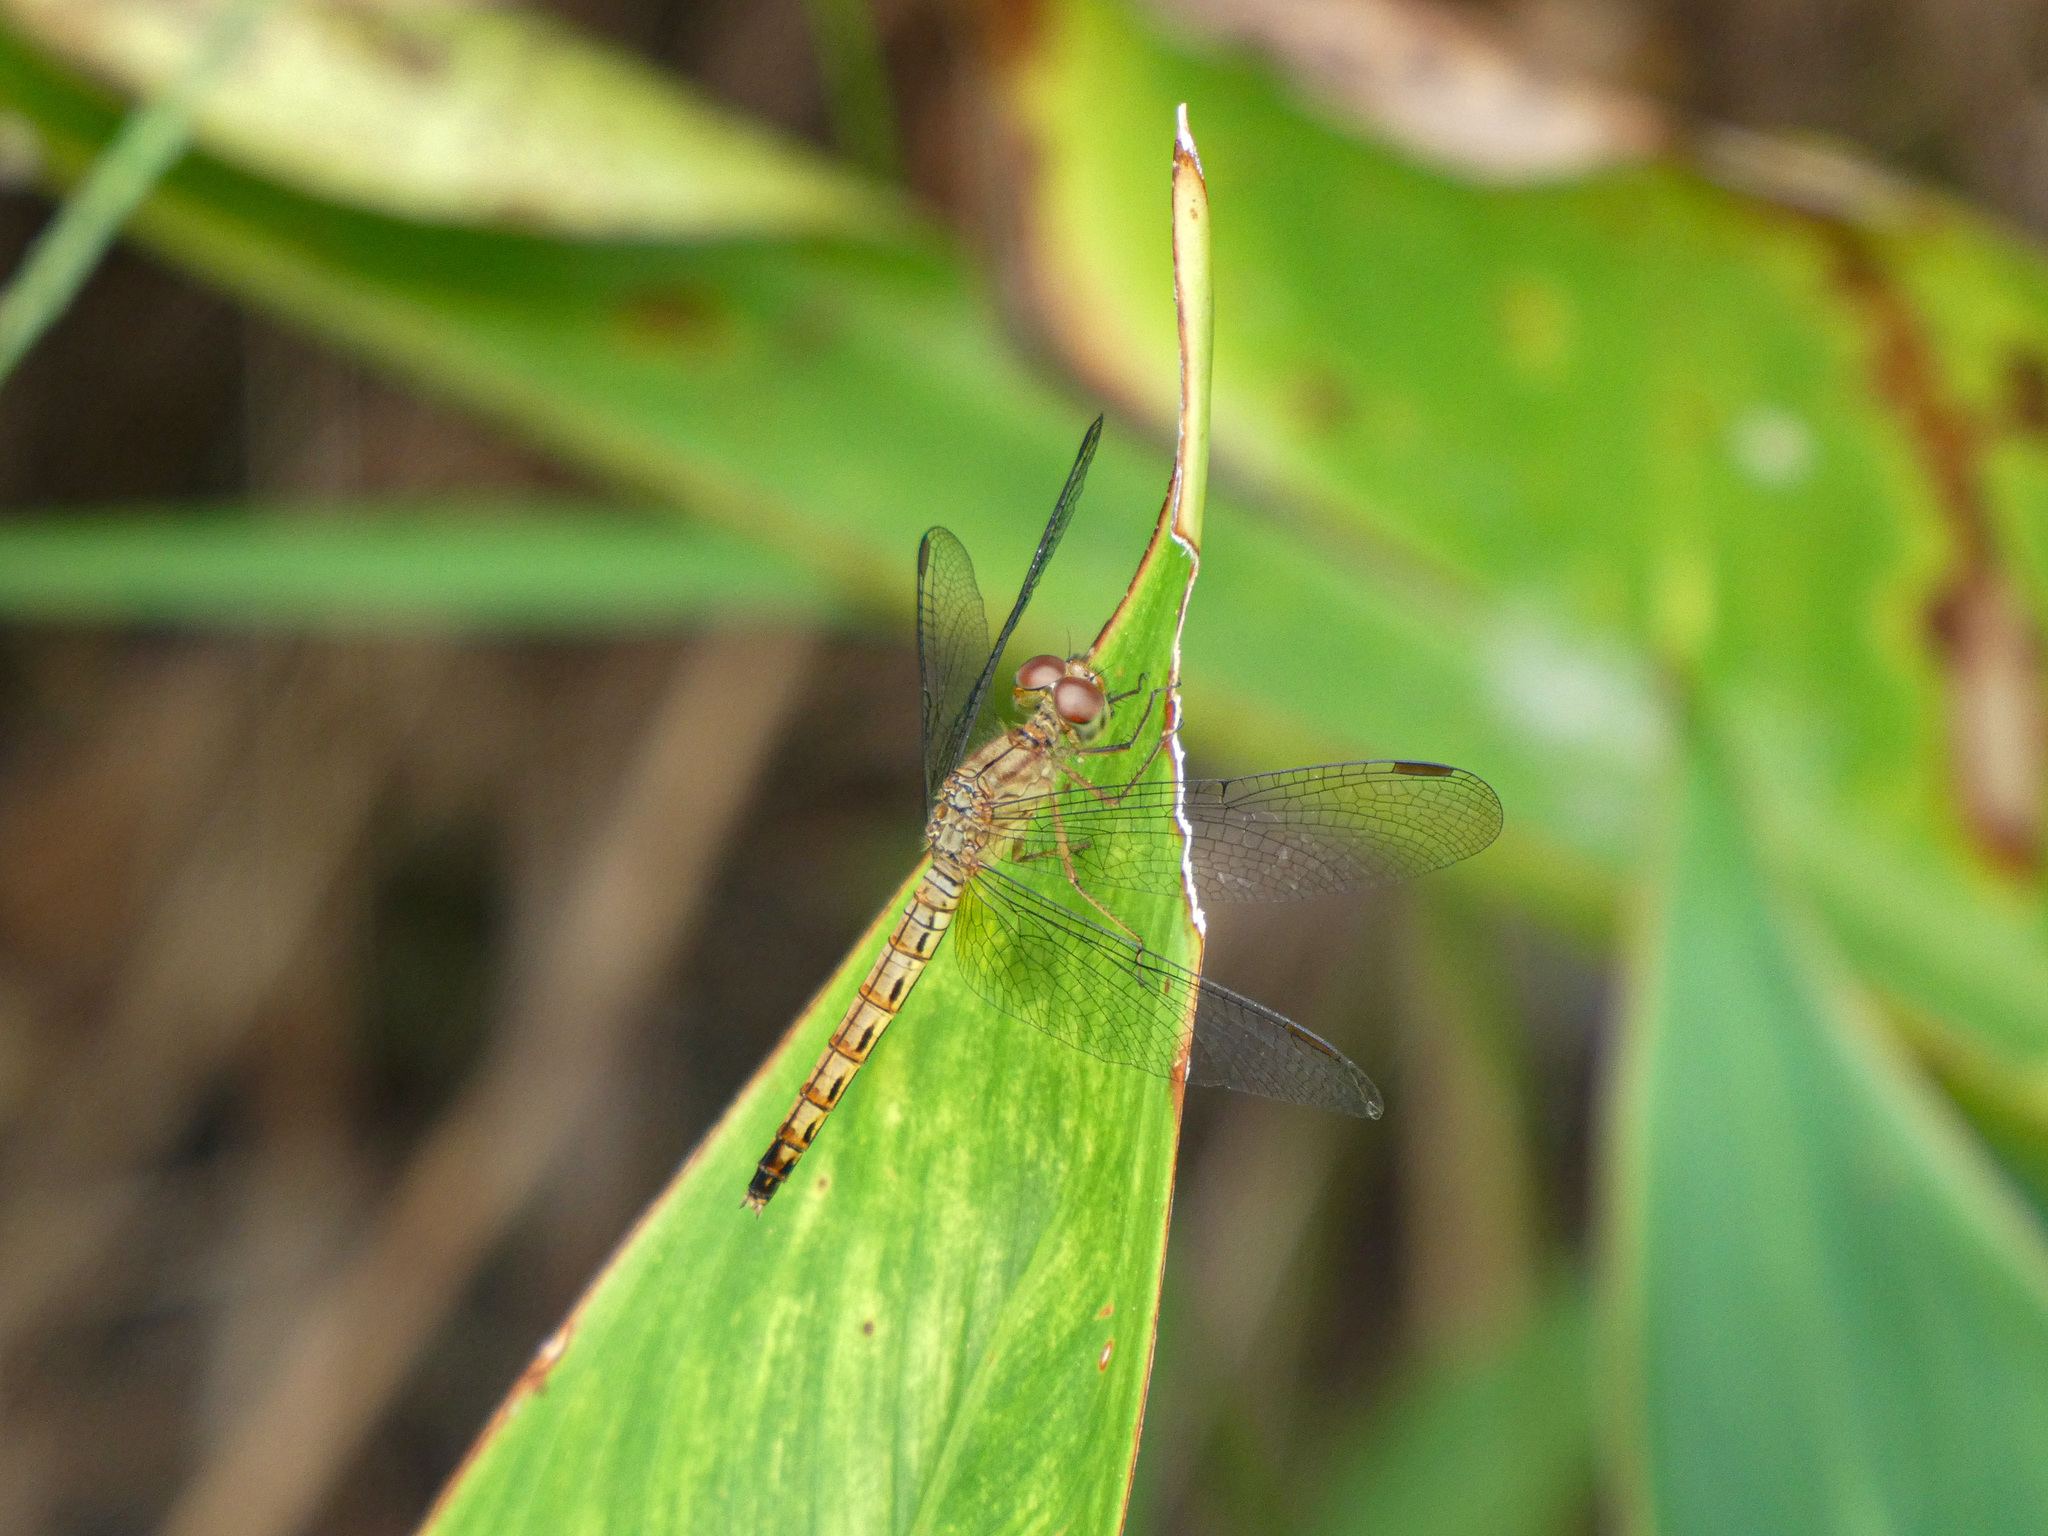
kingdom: Animalia
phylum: Arthropoda
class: Insecta
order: Odonata
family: Libellulidae
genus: Neurothemis
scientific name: Neurothemis fluctuans
